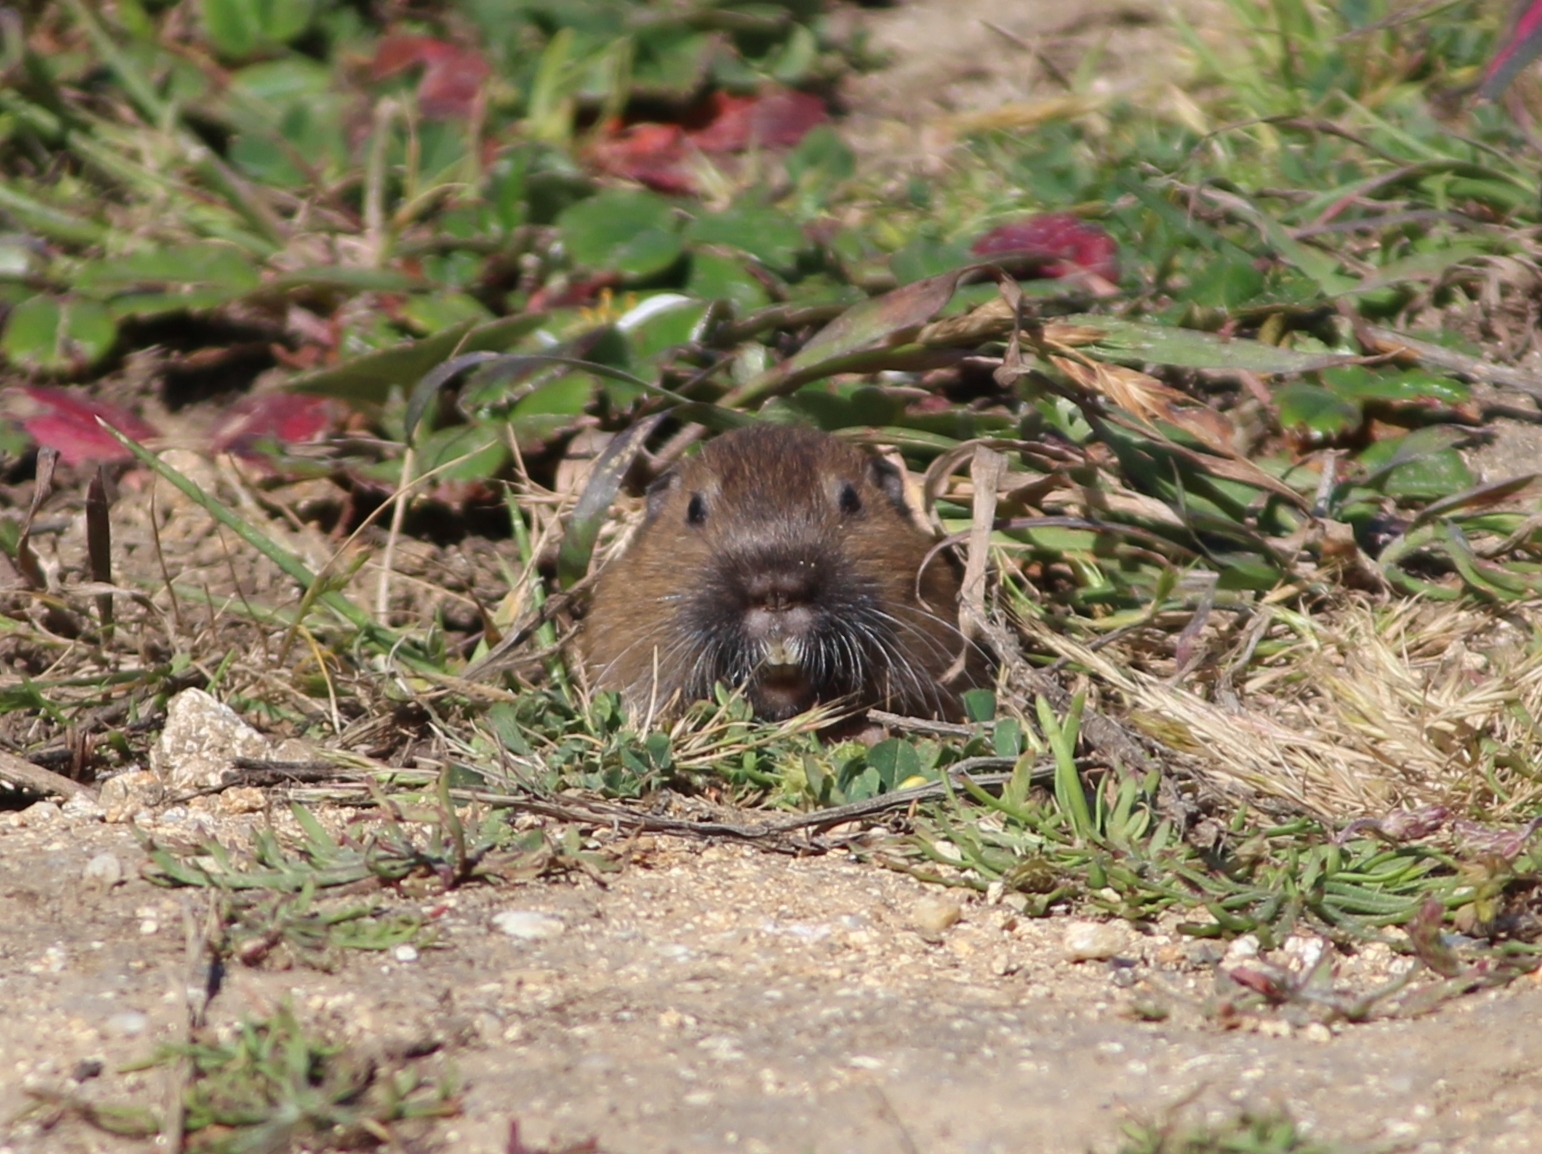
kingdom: Animalia
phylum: Chordata
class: Mammalia
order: Rodentia
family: Geomyidae
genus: Thomomys
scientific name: Thomomys bottae
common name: Botta's pocket gopher
